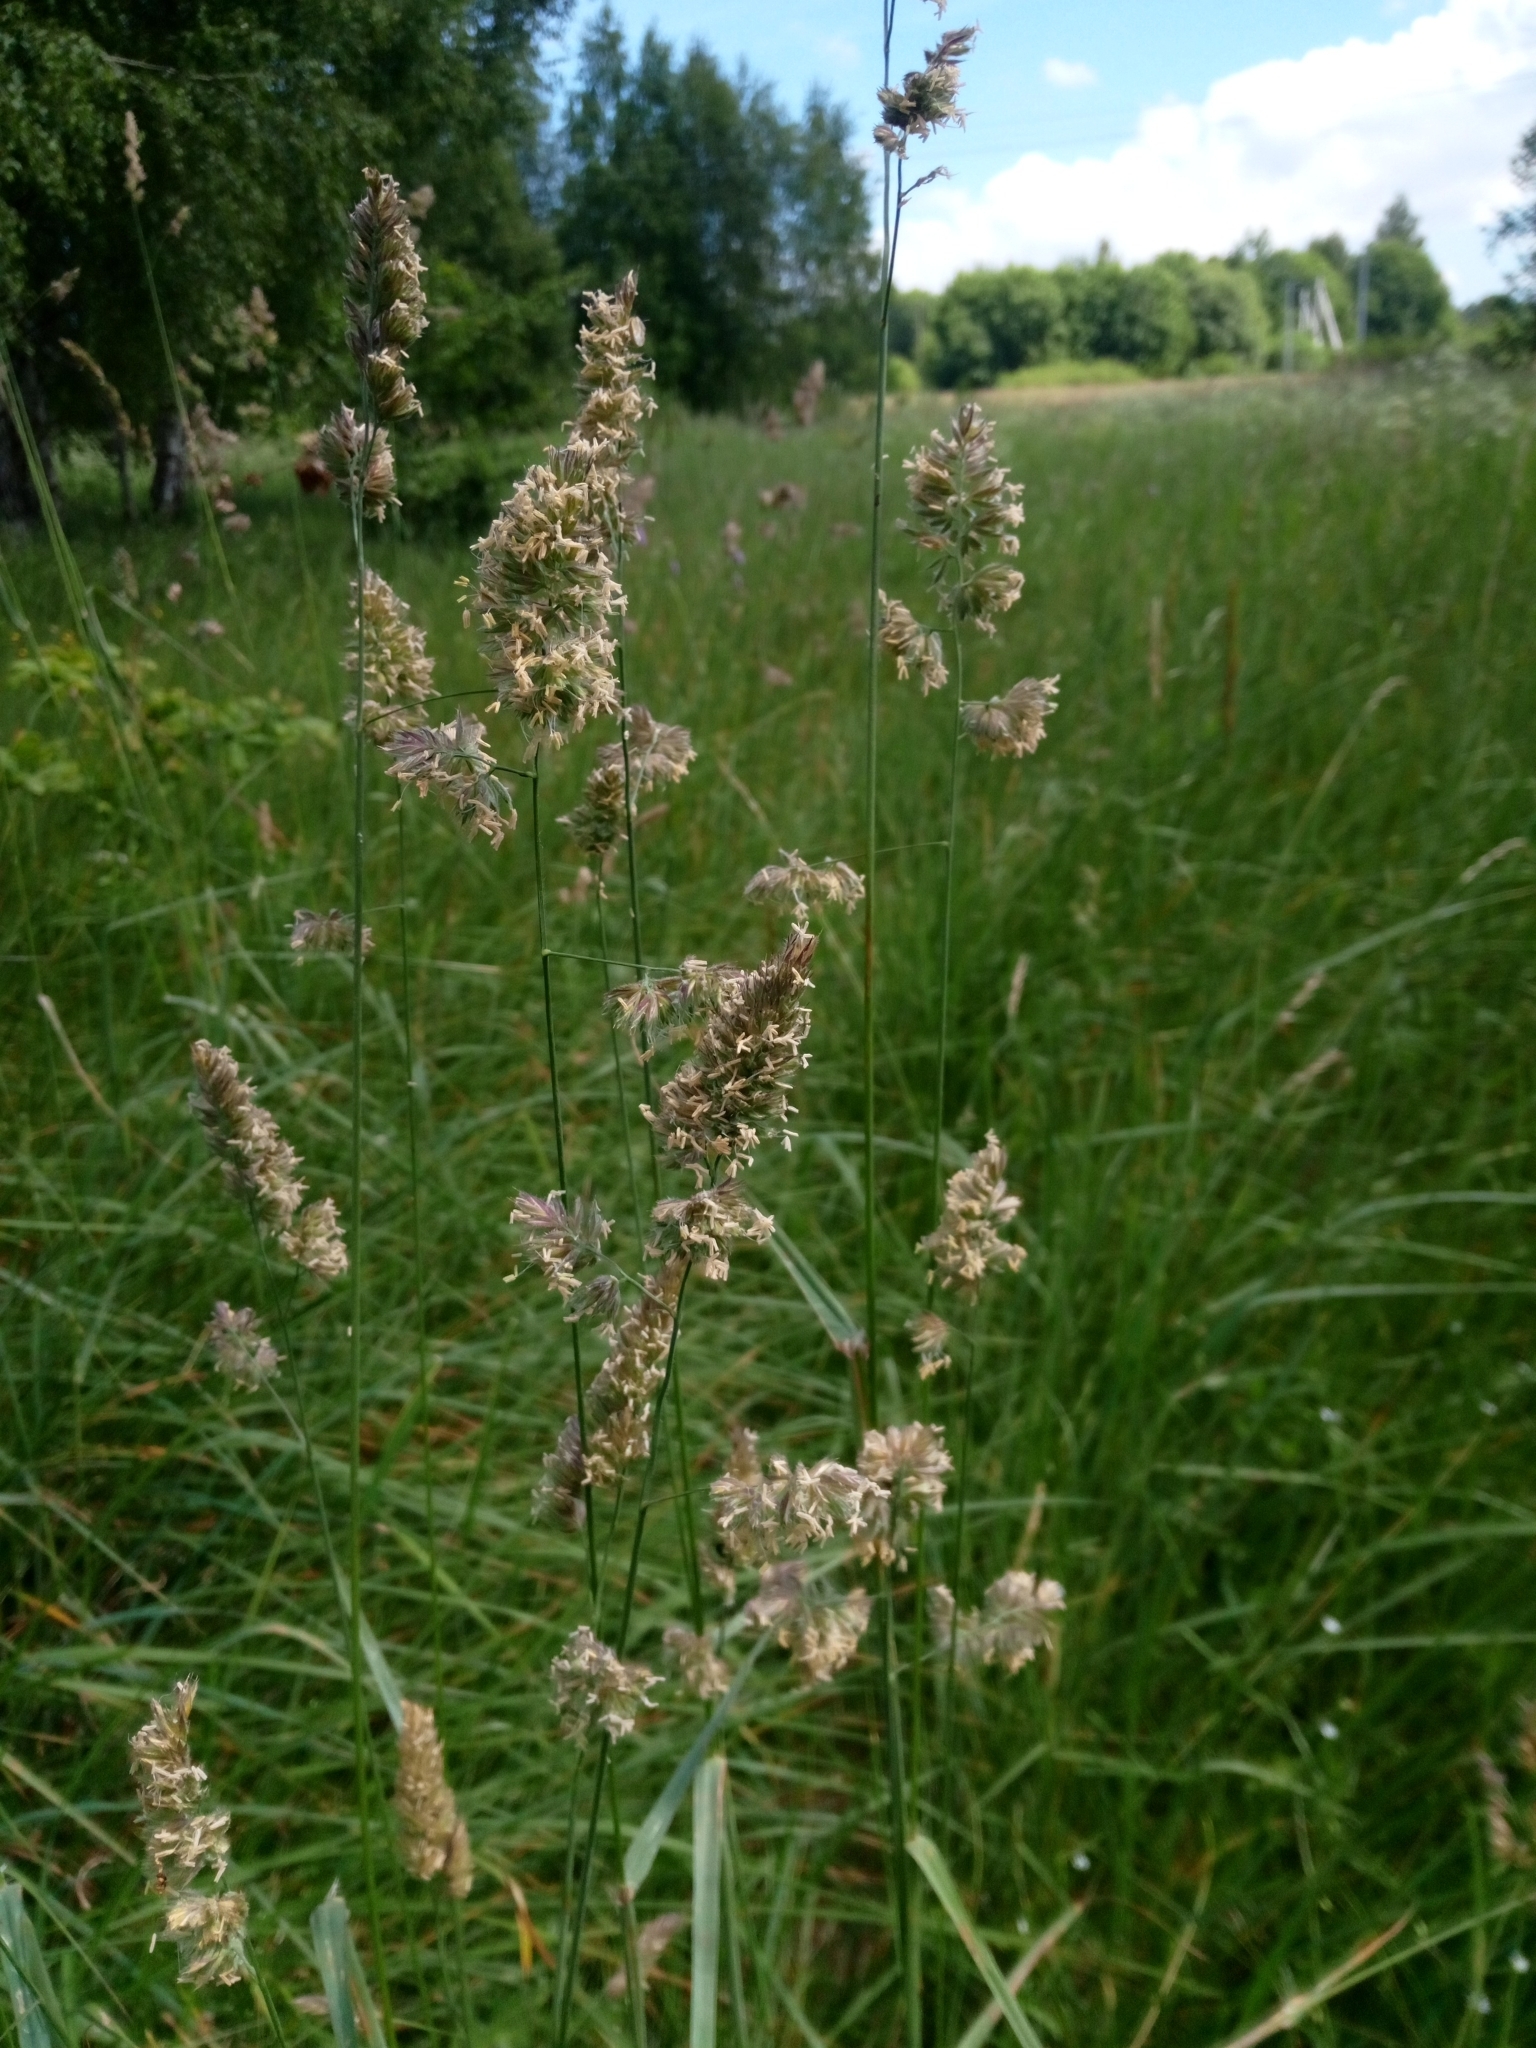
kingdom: Plantae
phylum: Tracheophyta
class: Liliopsida
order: Poales
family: Poaceae
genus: Dactylis
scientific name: Dactylis glomerata
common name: Orchardgrass
